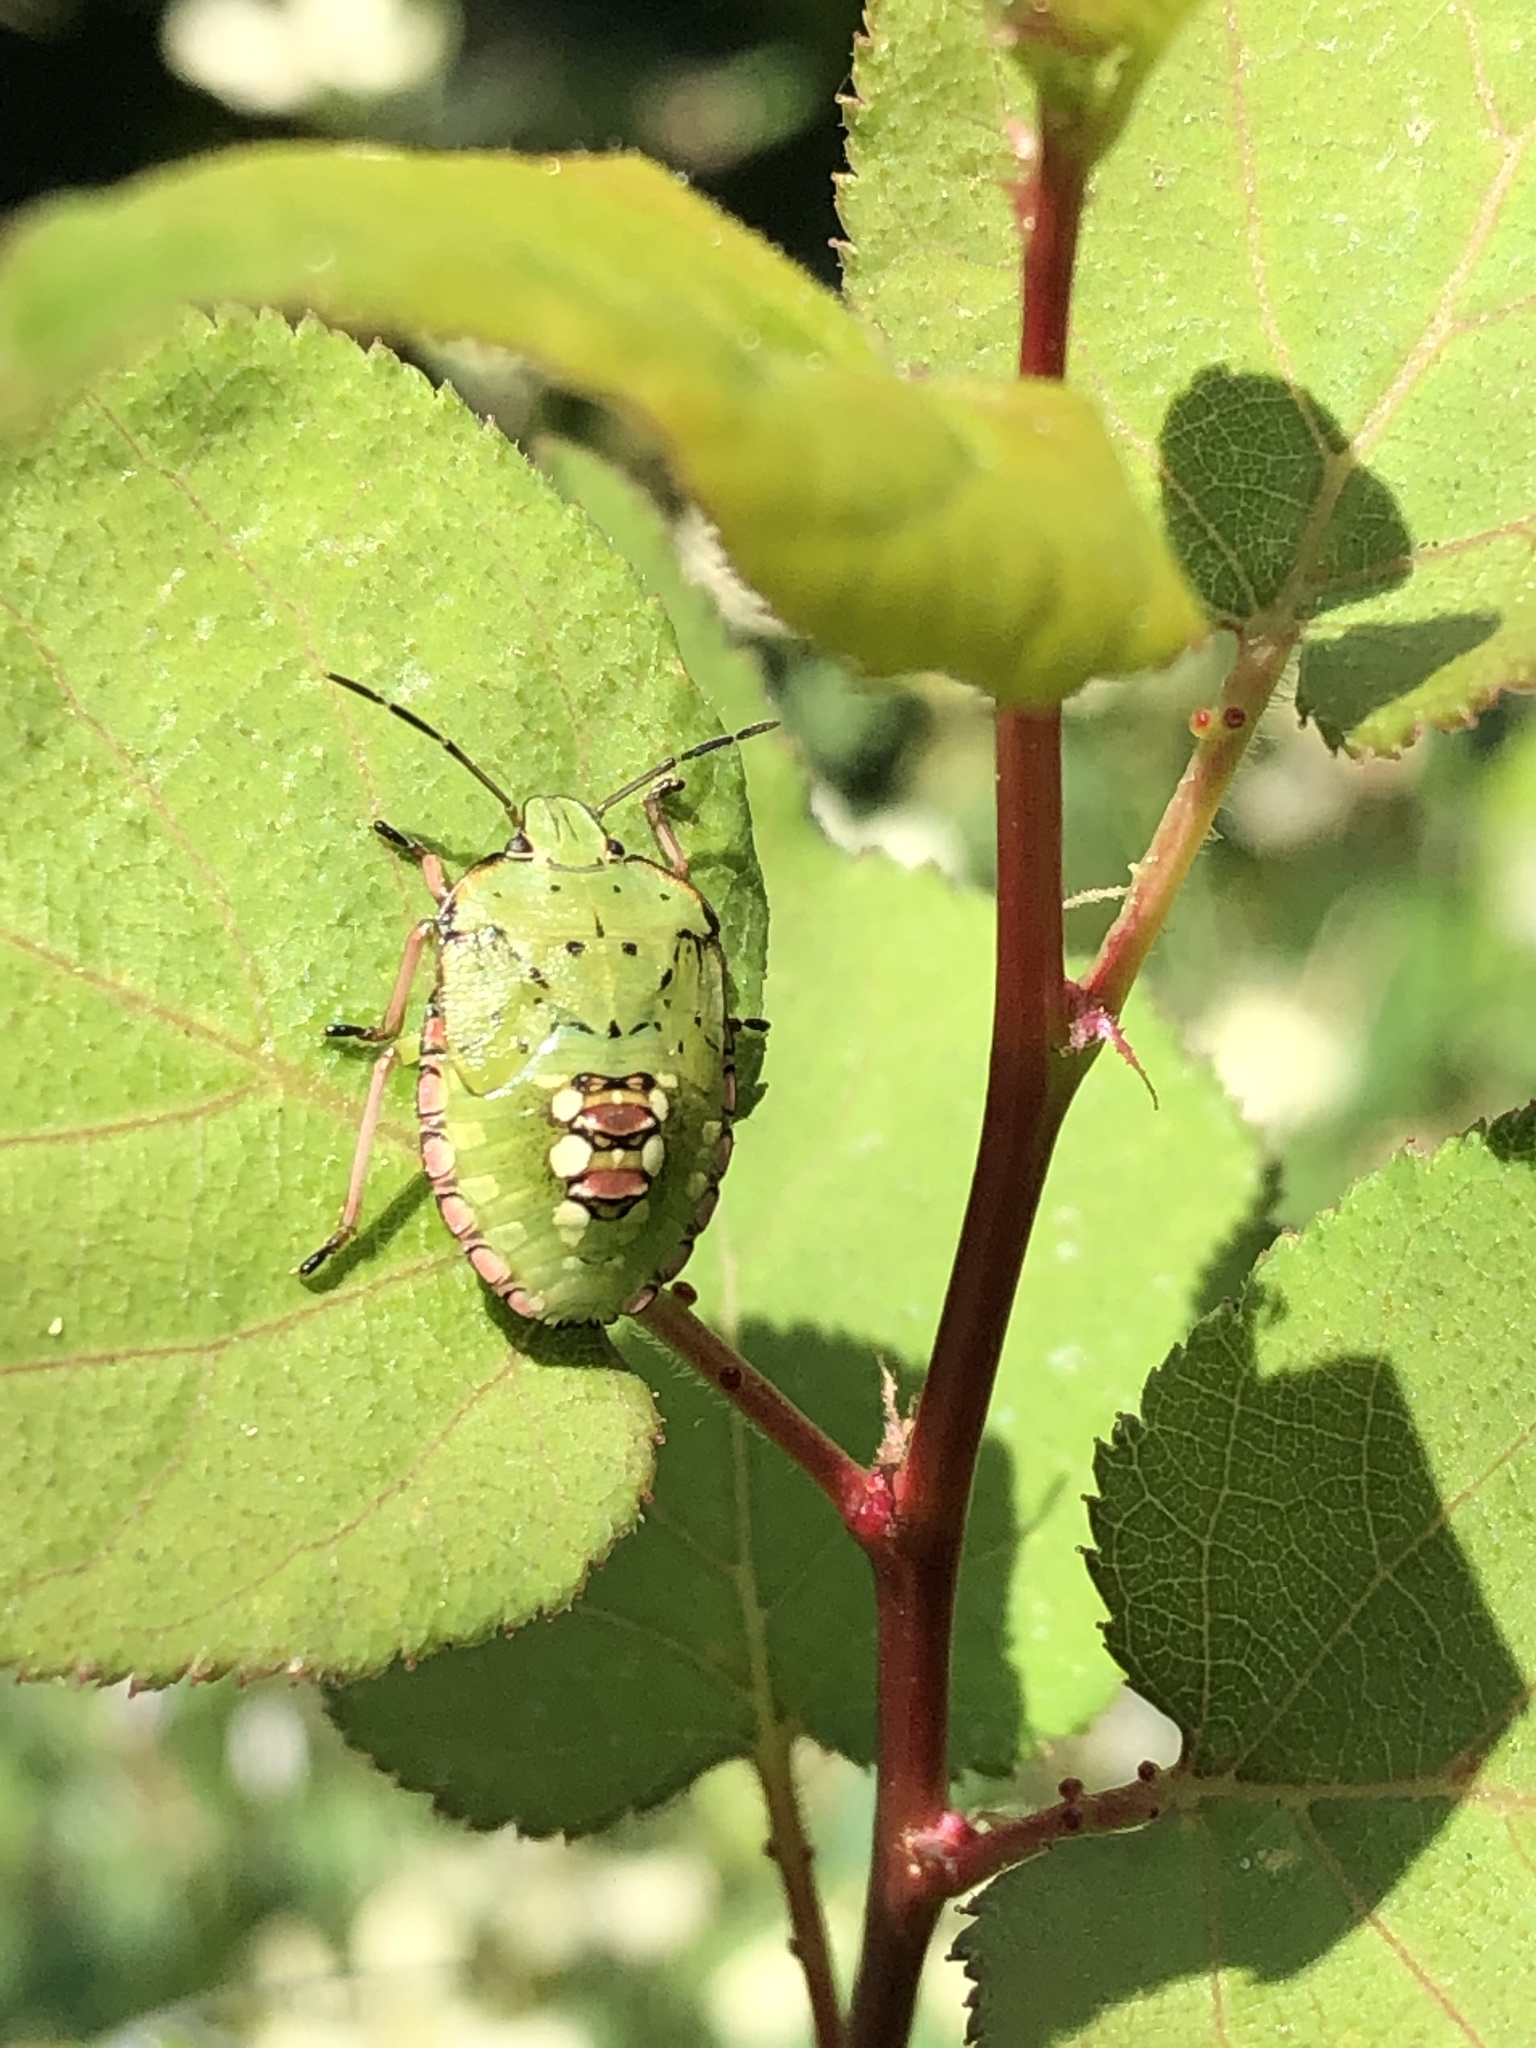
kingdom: Animalia
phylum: Arthropoda
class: Insecta
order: Hemiptera
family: Pentatomidae
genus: Nezara
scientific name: Nezara viridula
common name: Southern green stink bug
